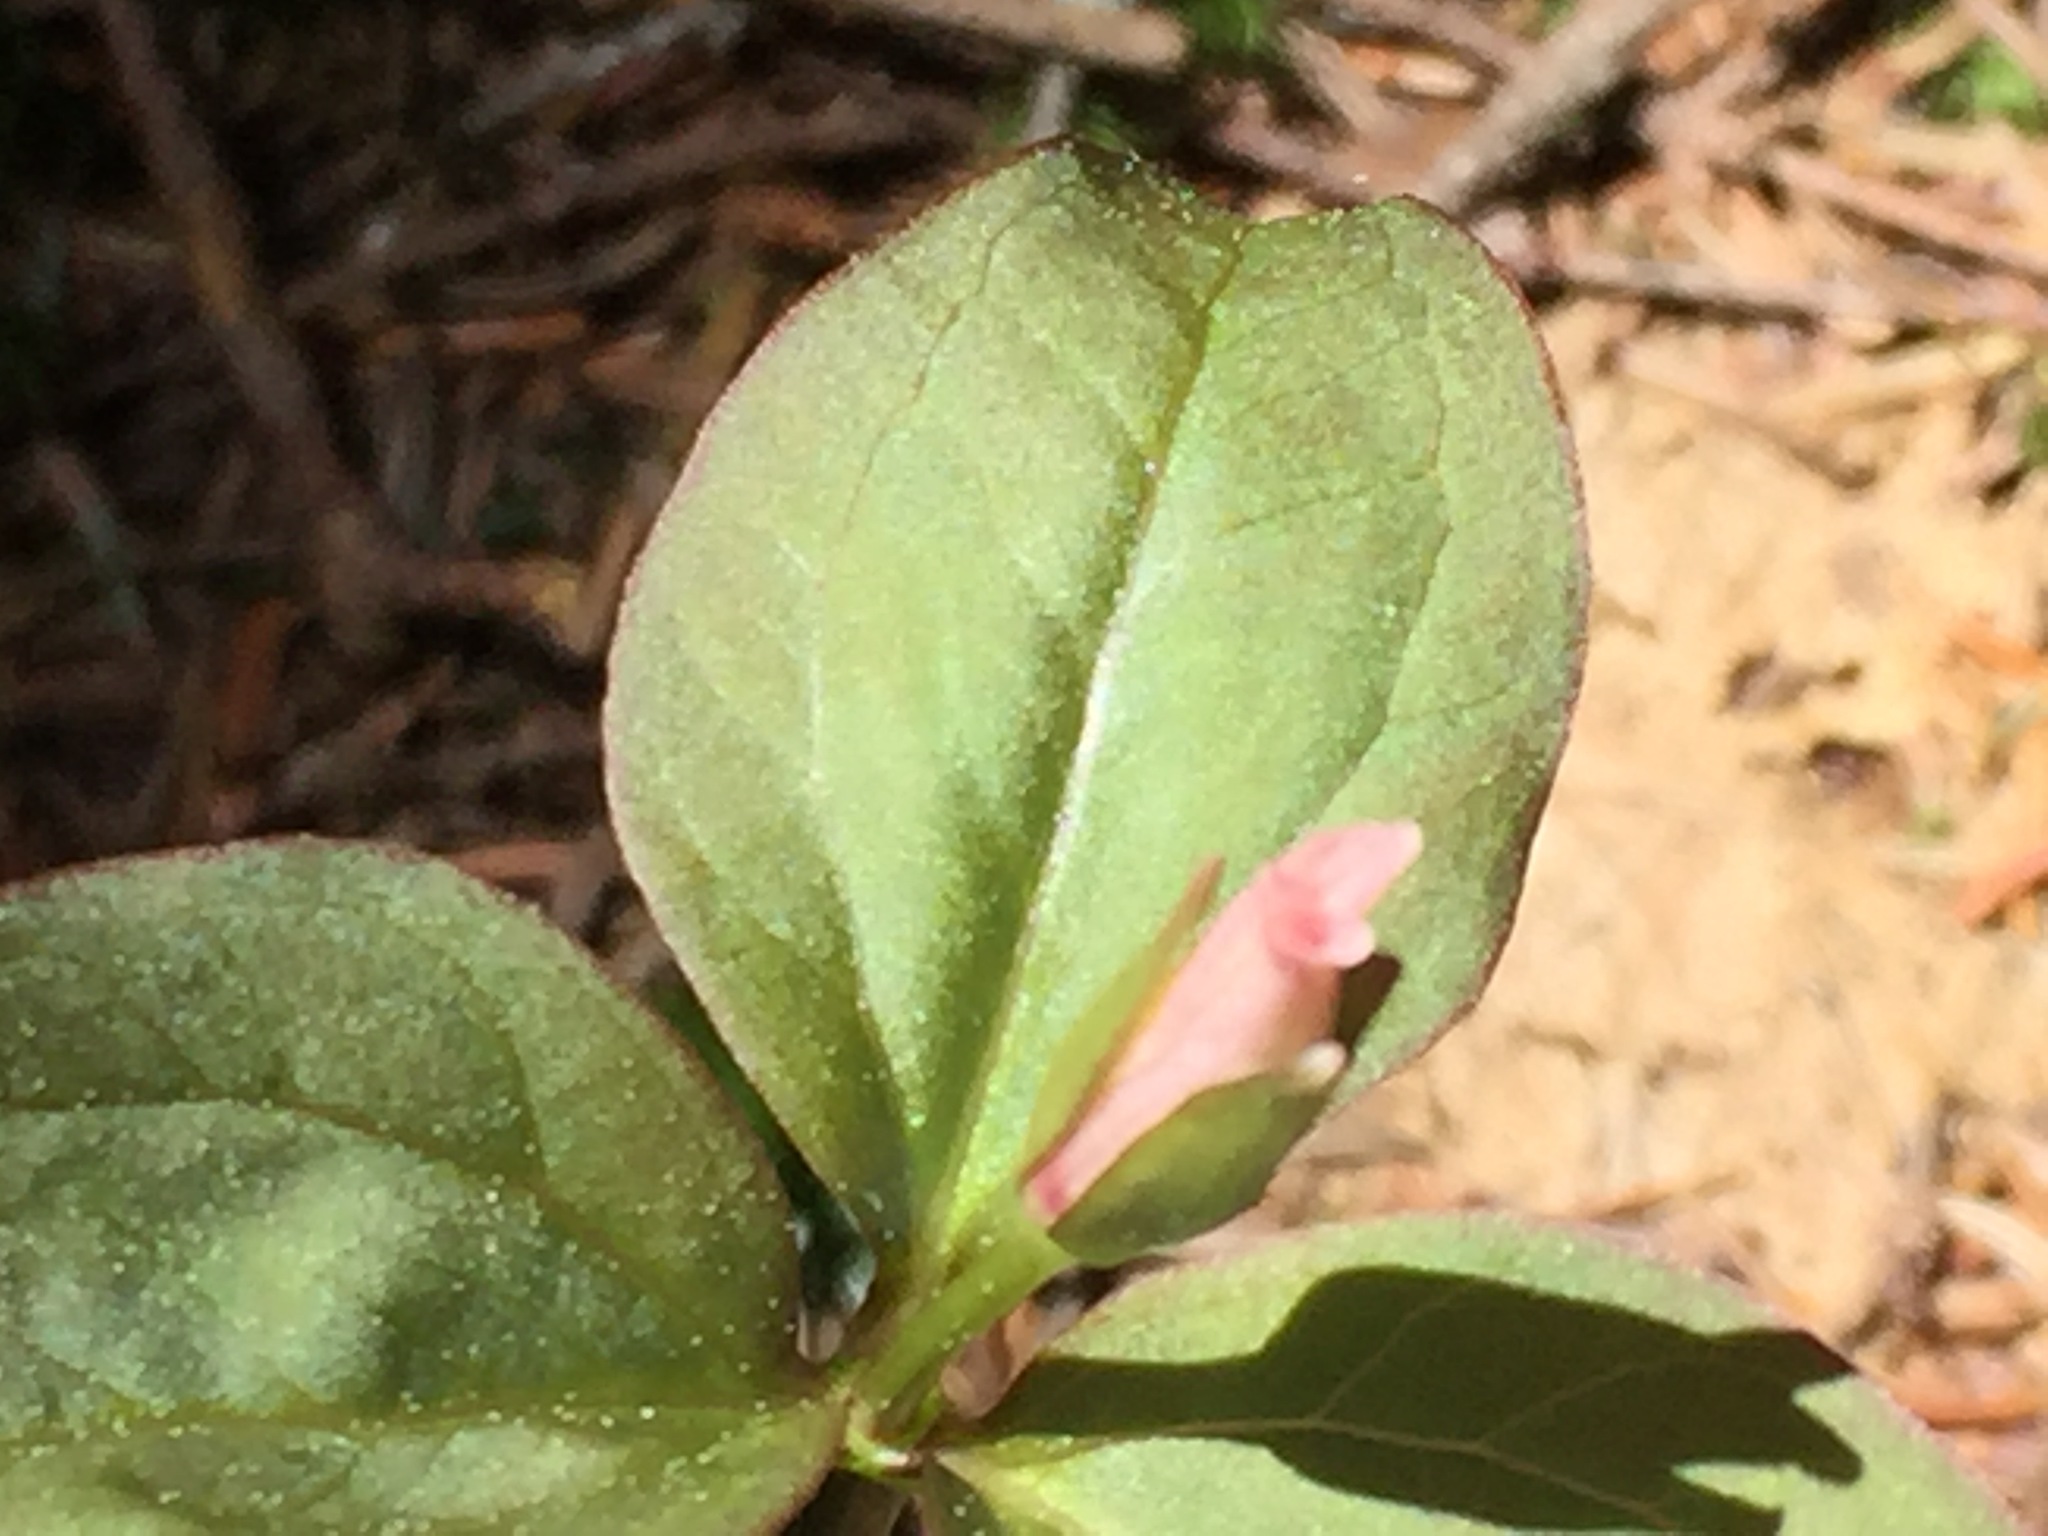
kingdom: Plantae
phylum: Tracheophyta
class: Liliopsida
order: Liliales
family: Melanthiaceae
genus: Trillium
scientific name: Trillium undulatum
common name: Paint trillium
